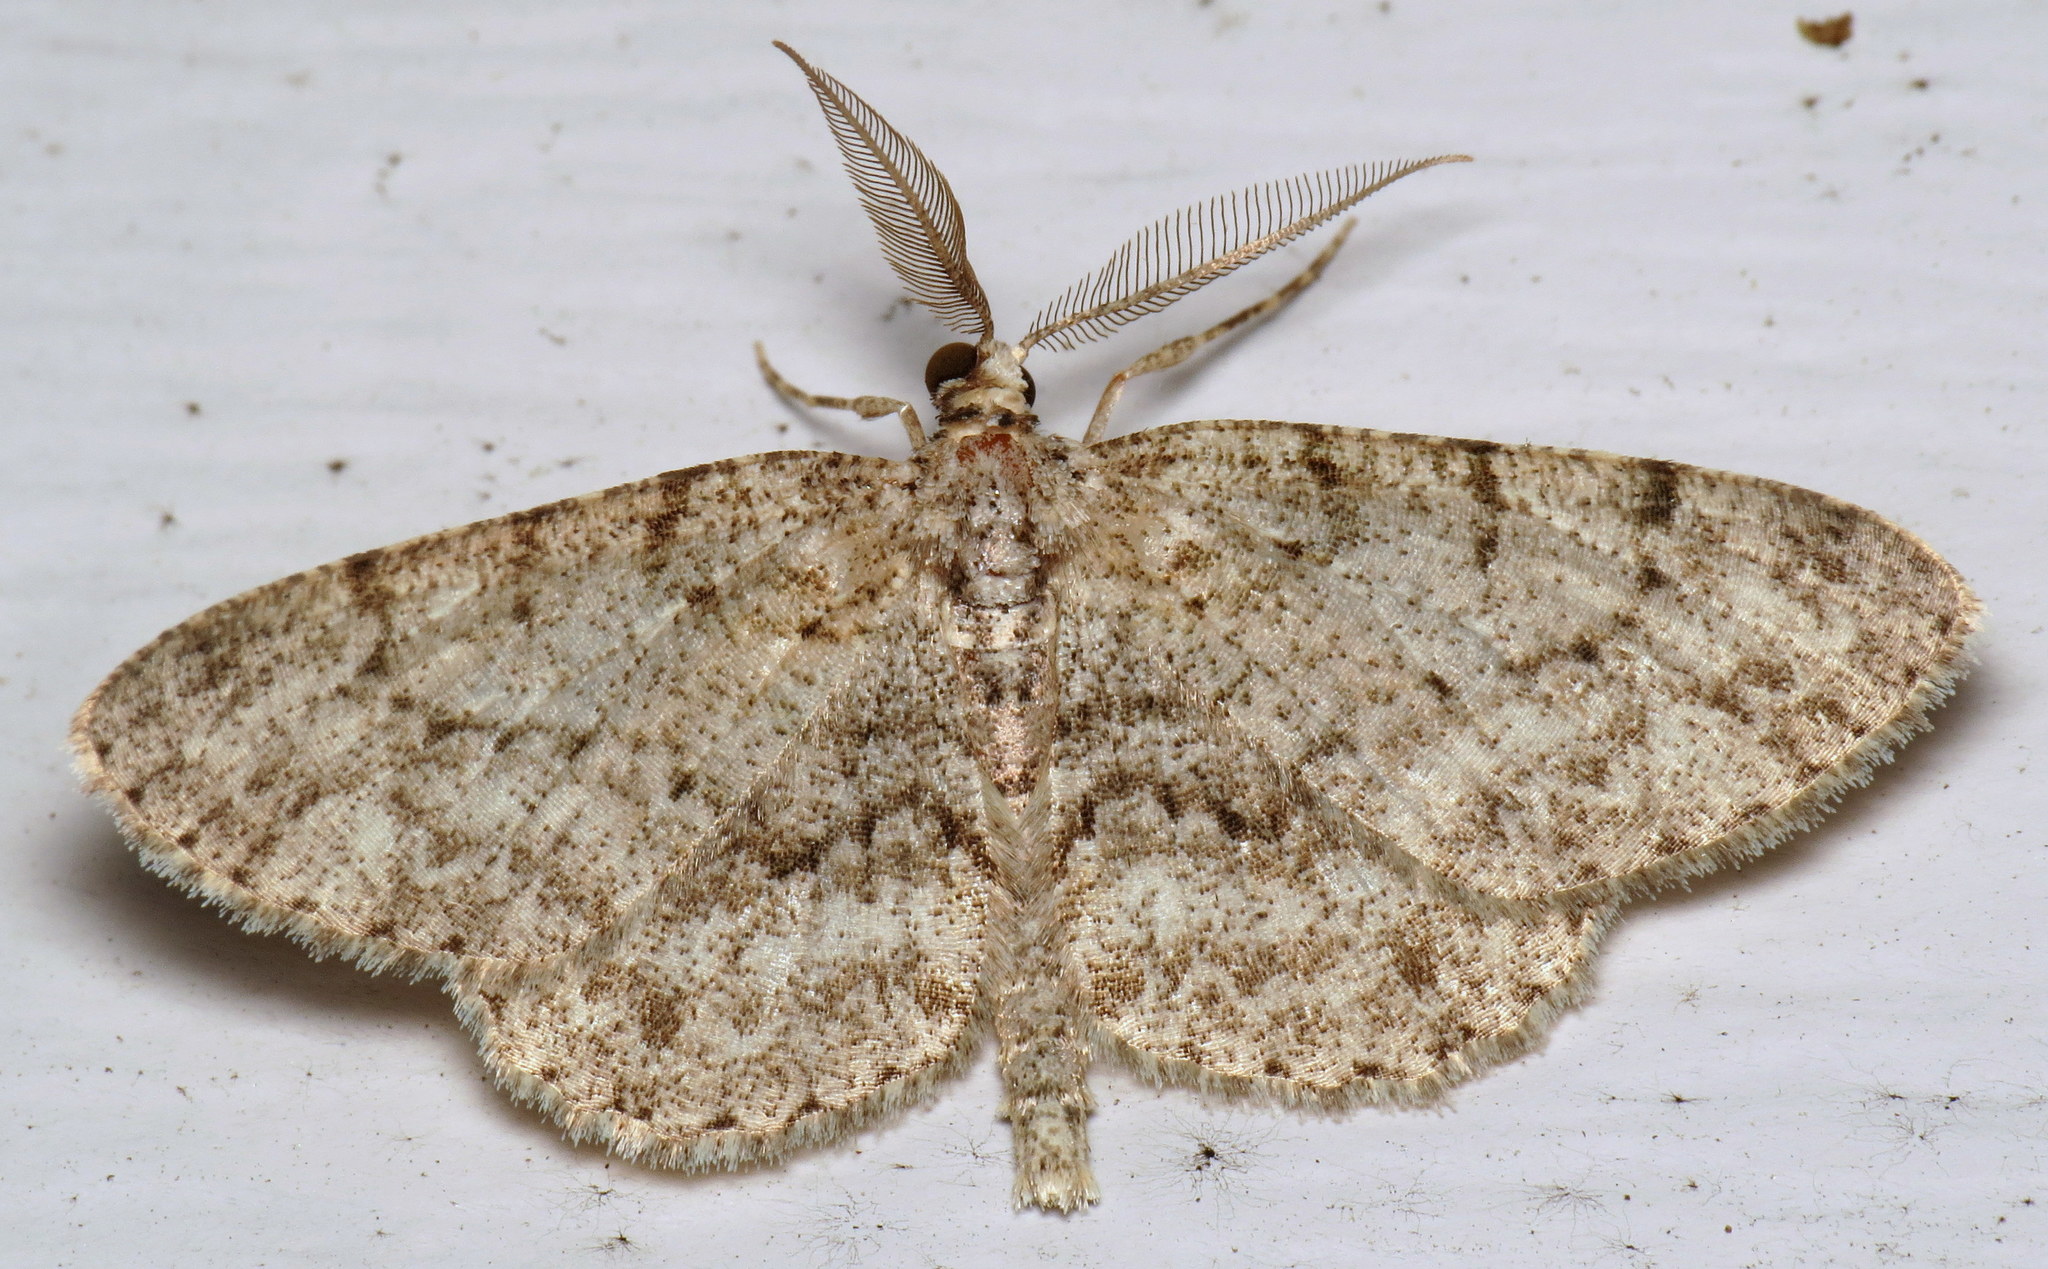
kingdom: Animalia
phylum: Arthropoda
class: Insecta
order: Lepidoptera
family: Geometridae
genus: Protoboarmia
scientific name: Protoboarmia porcelaria
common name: Porcelain gray
